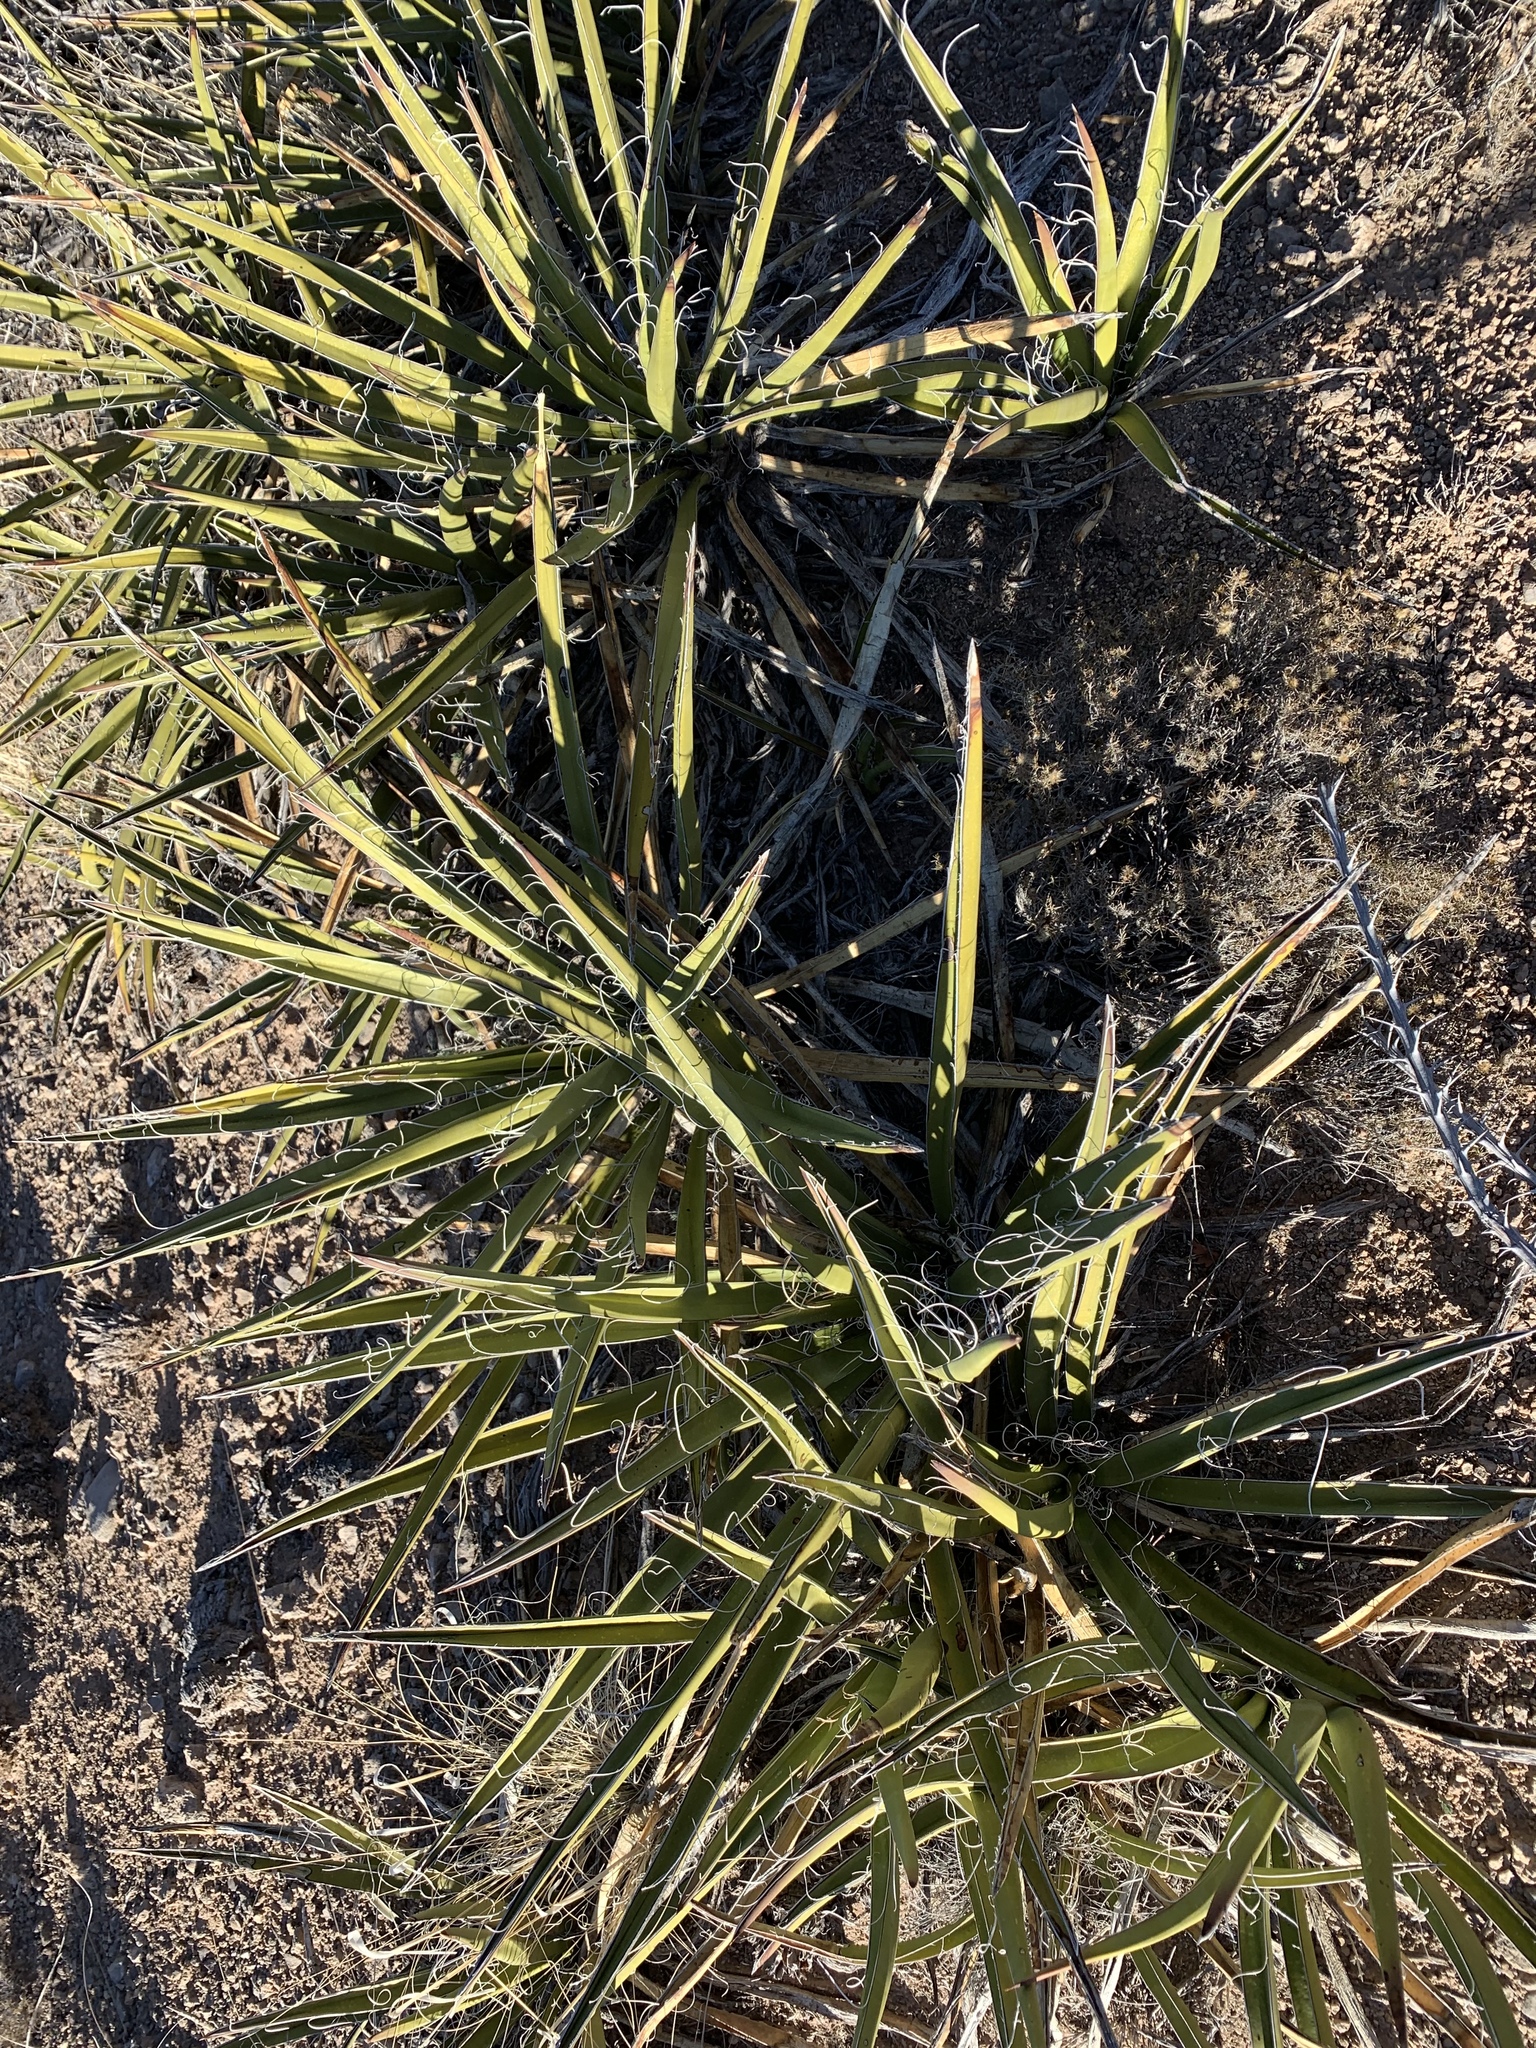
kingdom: Plantae
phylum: Tracheophyta
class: Liliopsida
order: Asparagales
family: Asparagaceae
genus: Yucca
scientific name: Yucca baccata
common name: Banana yucca
